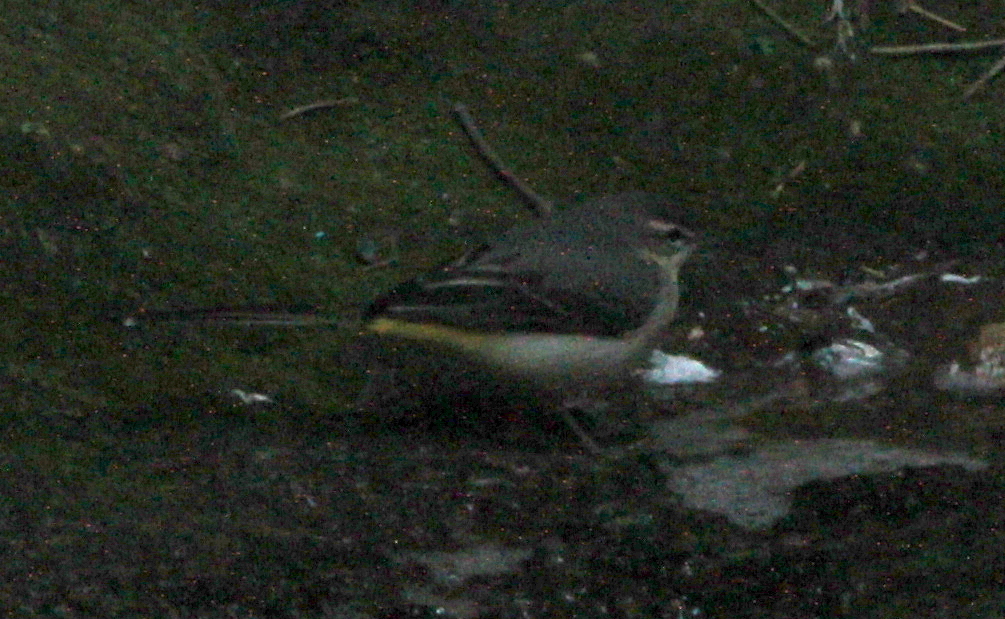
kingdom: Animalia
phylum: Chordata
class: Aves
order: Passeriformes
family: Motacillidae
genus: Motacilla
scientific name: Motacilla cinerea
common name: Grey wagtail
